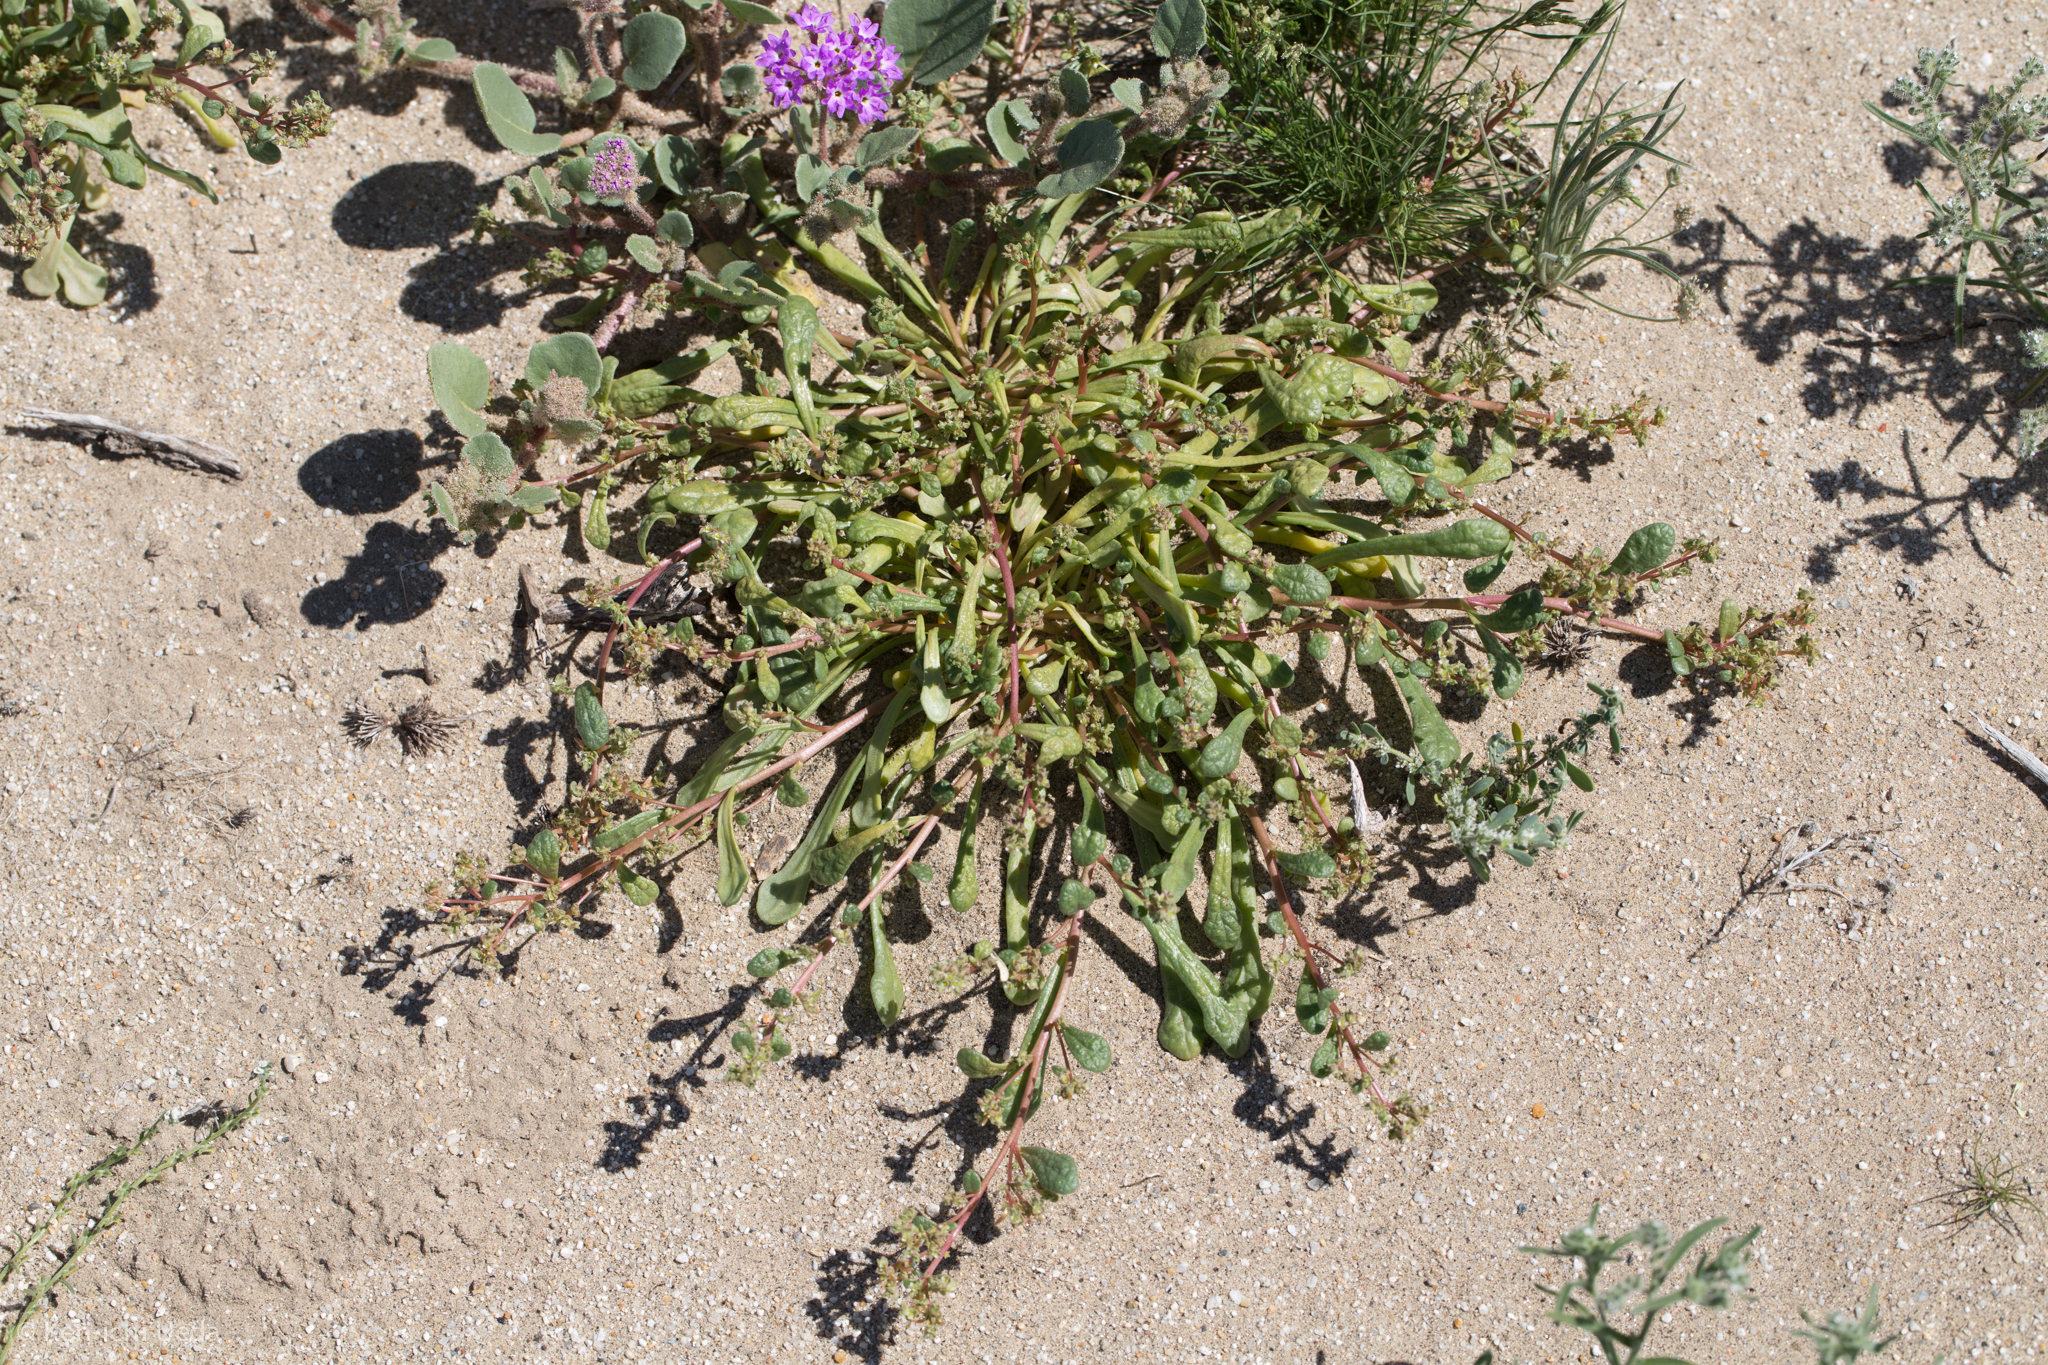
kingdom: Plantae
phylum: Tracheophyta
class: Magnoliopsida
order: Caryophyllales
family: Montiaceae
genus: Calyptridium
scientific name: Calyptridium monandrum
